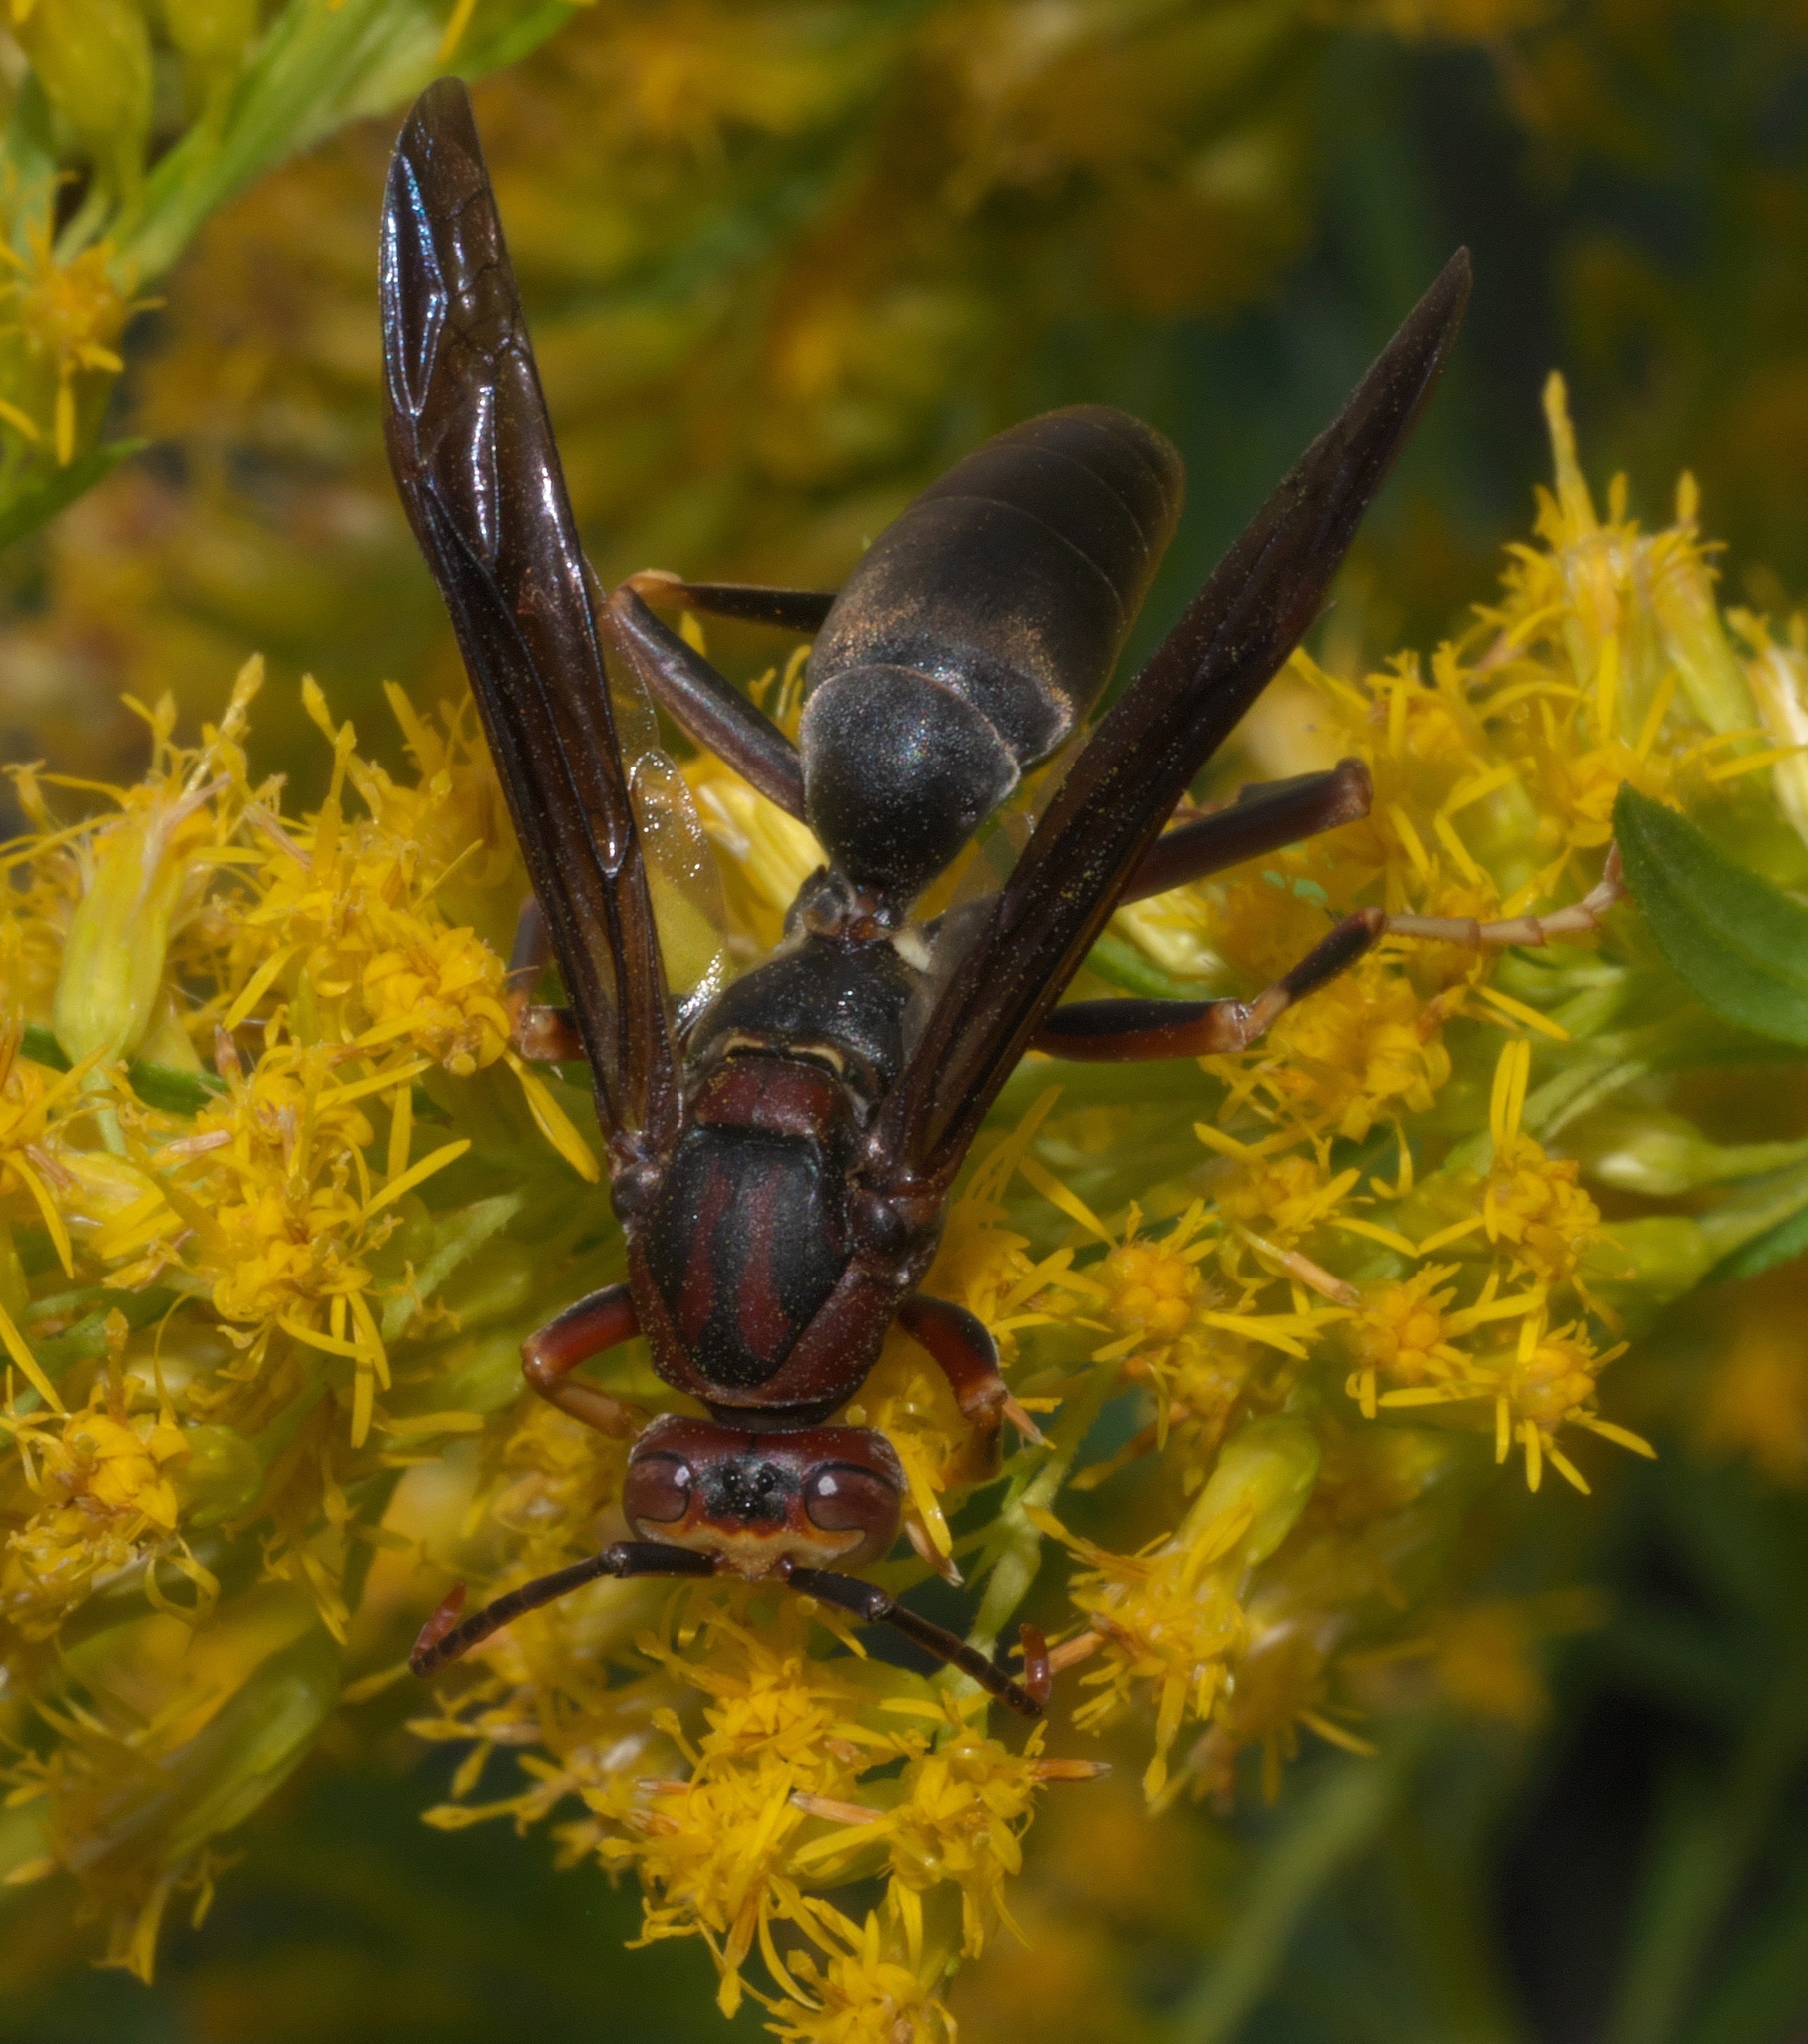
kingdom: Animalia
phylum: Arthropoda
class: Insecta
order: Hymenoptera
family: Eumenidae
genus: Polistes
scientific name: Polistes metricus
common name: Metric paper wasp
